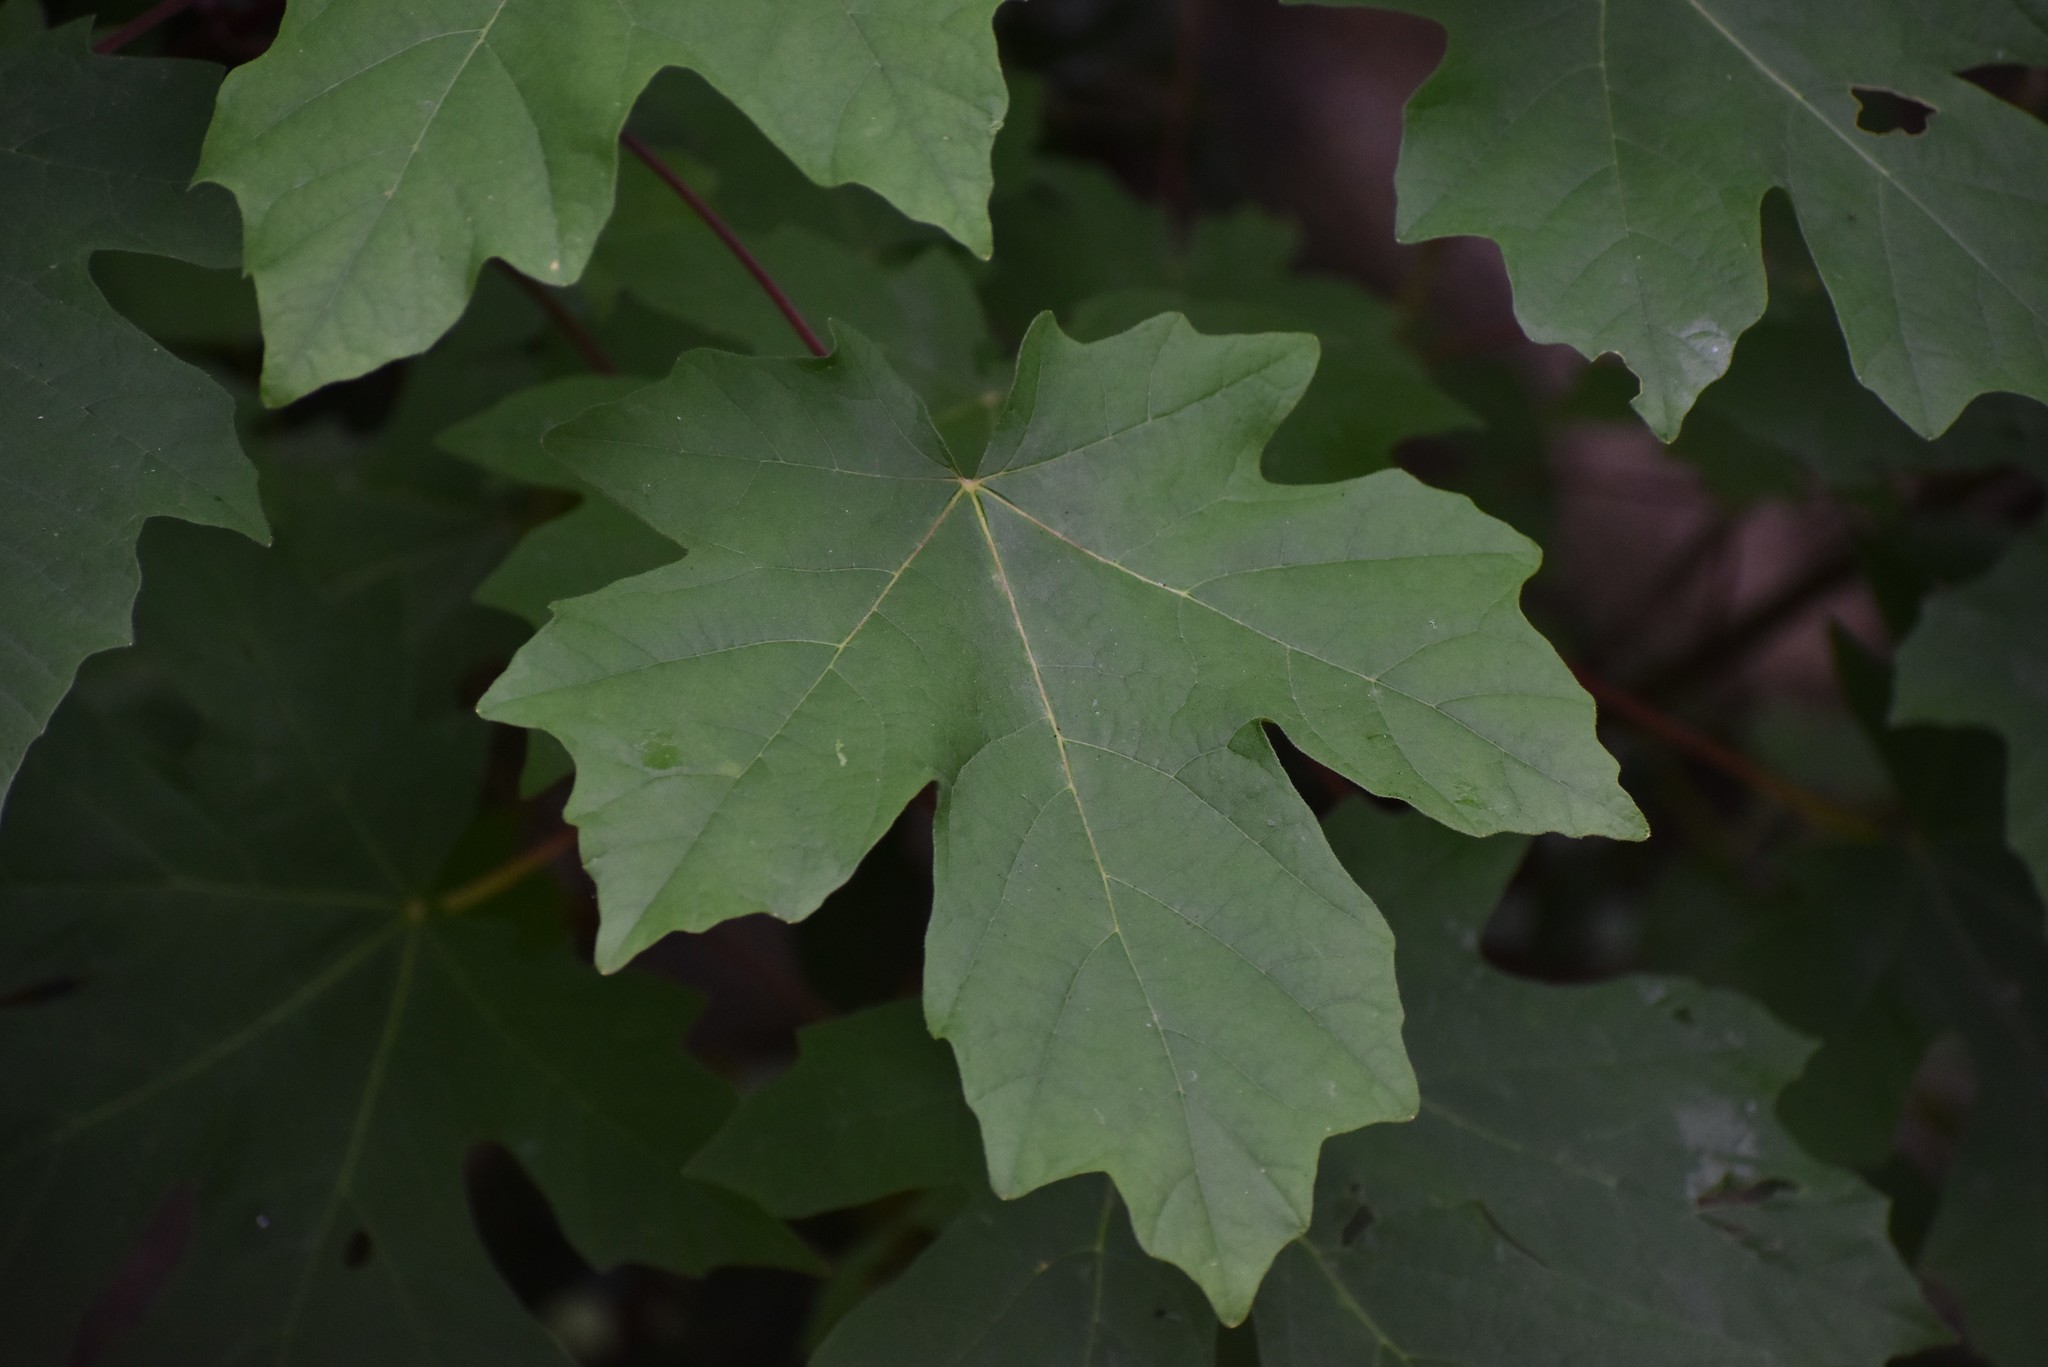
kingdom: Plantae
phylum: Tracheophyta
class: Magnoliopsida
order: Sapindales
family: Sapindaceae
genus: Acer
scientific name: Acer macrophyllum
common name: Oregon maple
